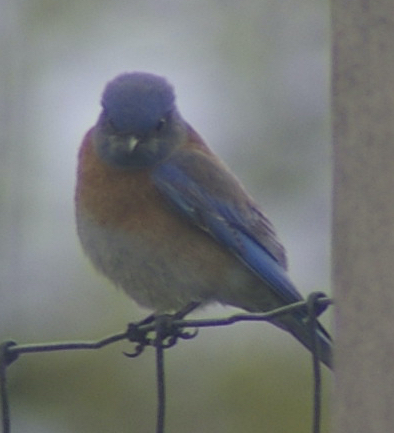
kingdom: Animalia
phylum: Chordata
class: Aves
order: Passeriformes
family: Turdidae
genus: Sialia
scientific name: Sialia mexicana
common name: Western bluebird
